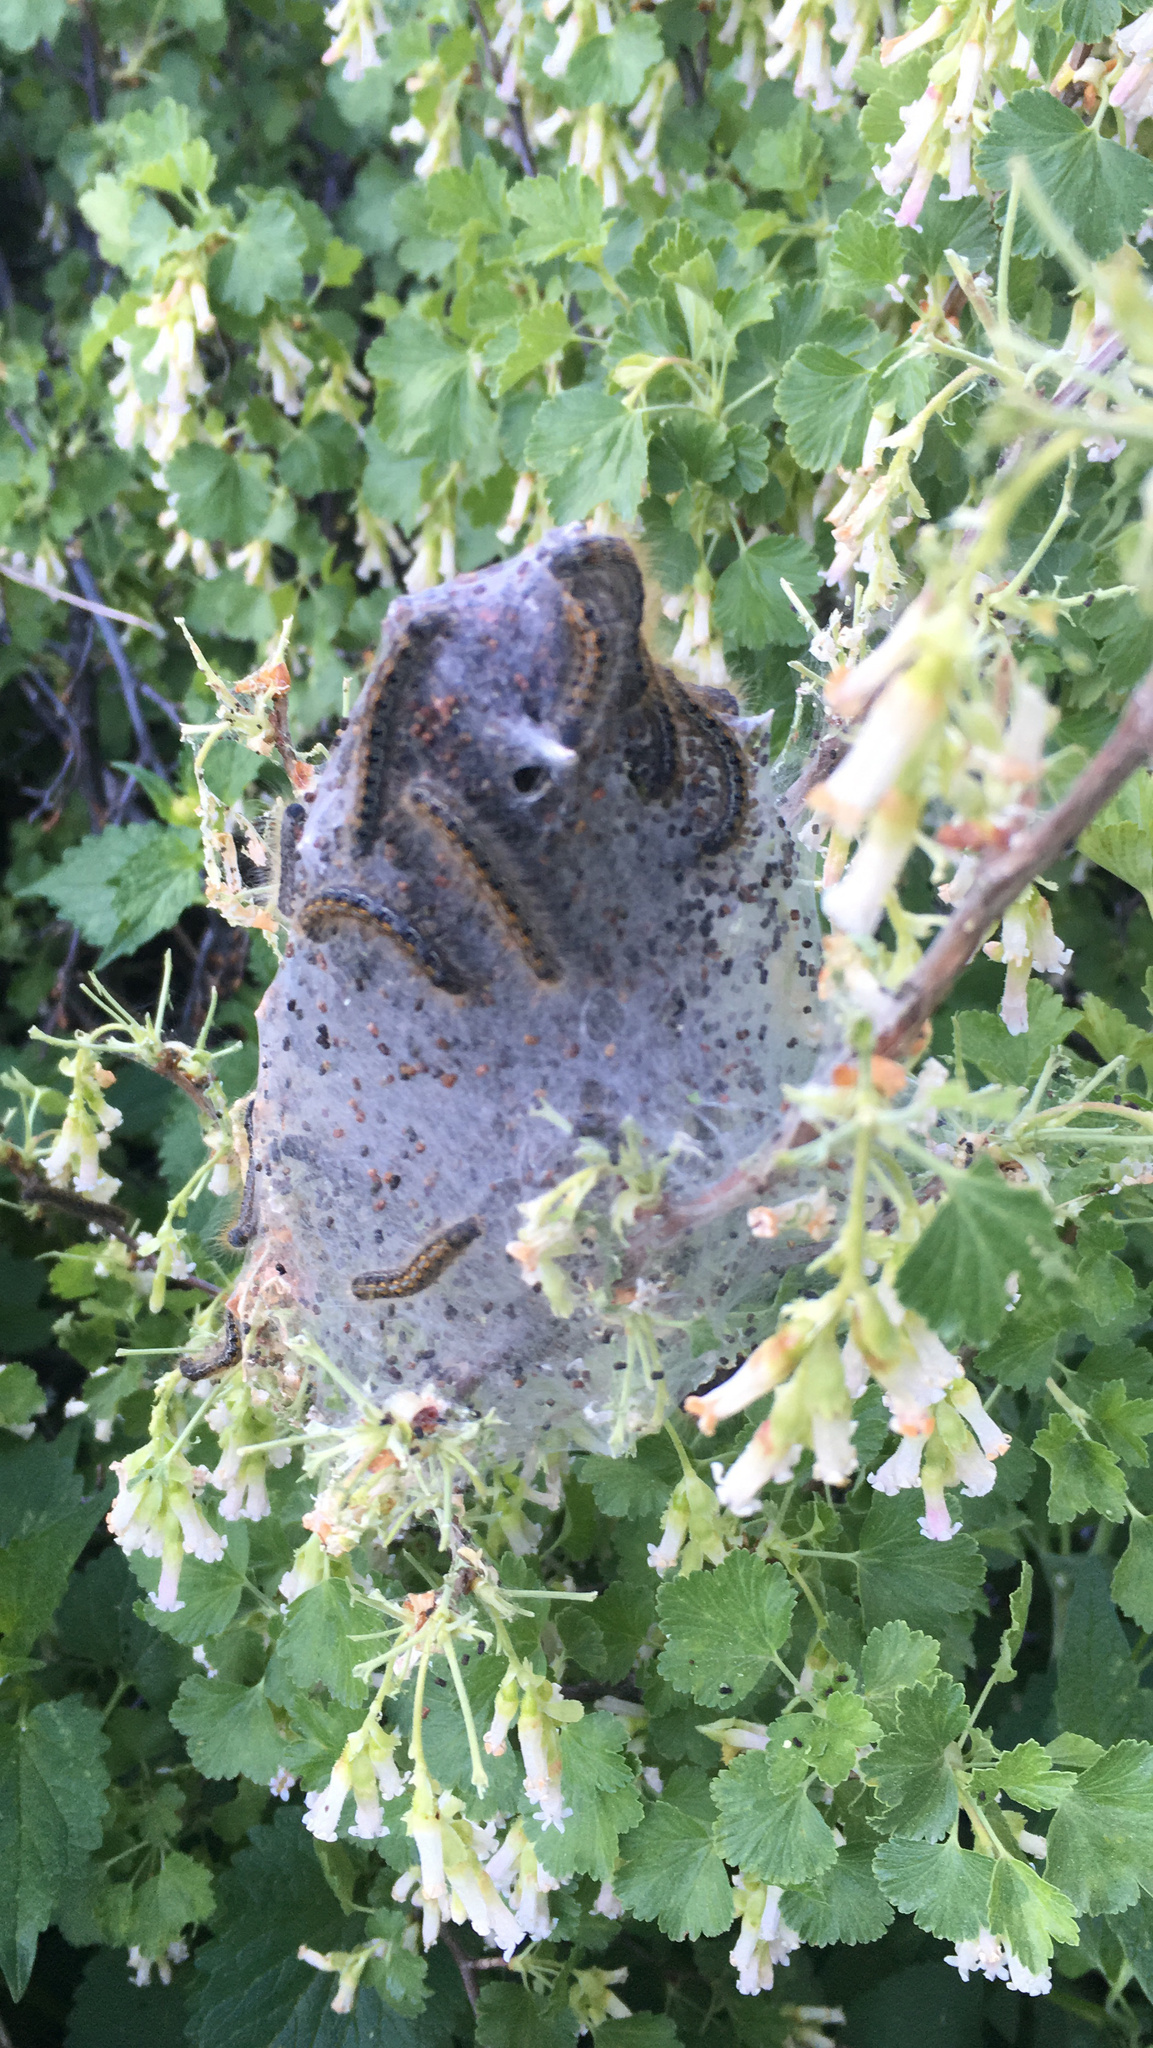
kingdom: Animalia
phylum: Arthropoda
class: Insecta
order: Lepidoptera
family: Lasiocampidae
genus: Malacosoma
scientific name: Malacosoma californica
